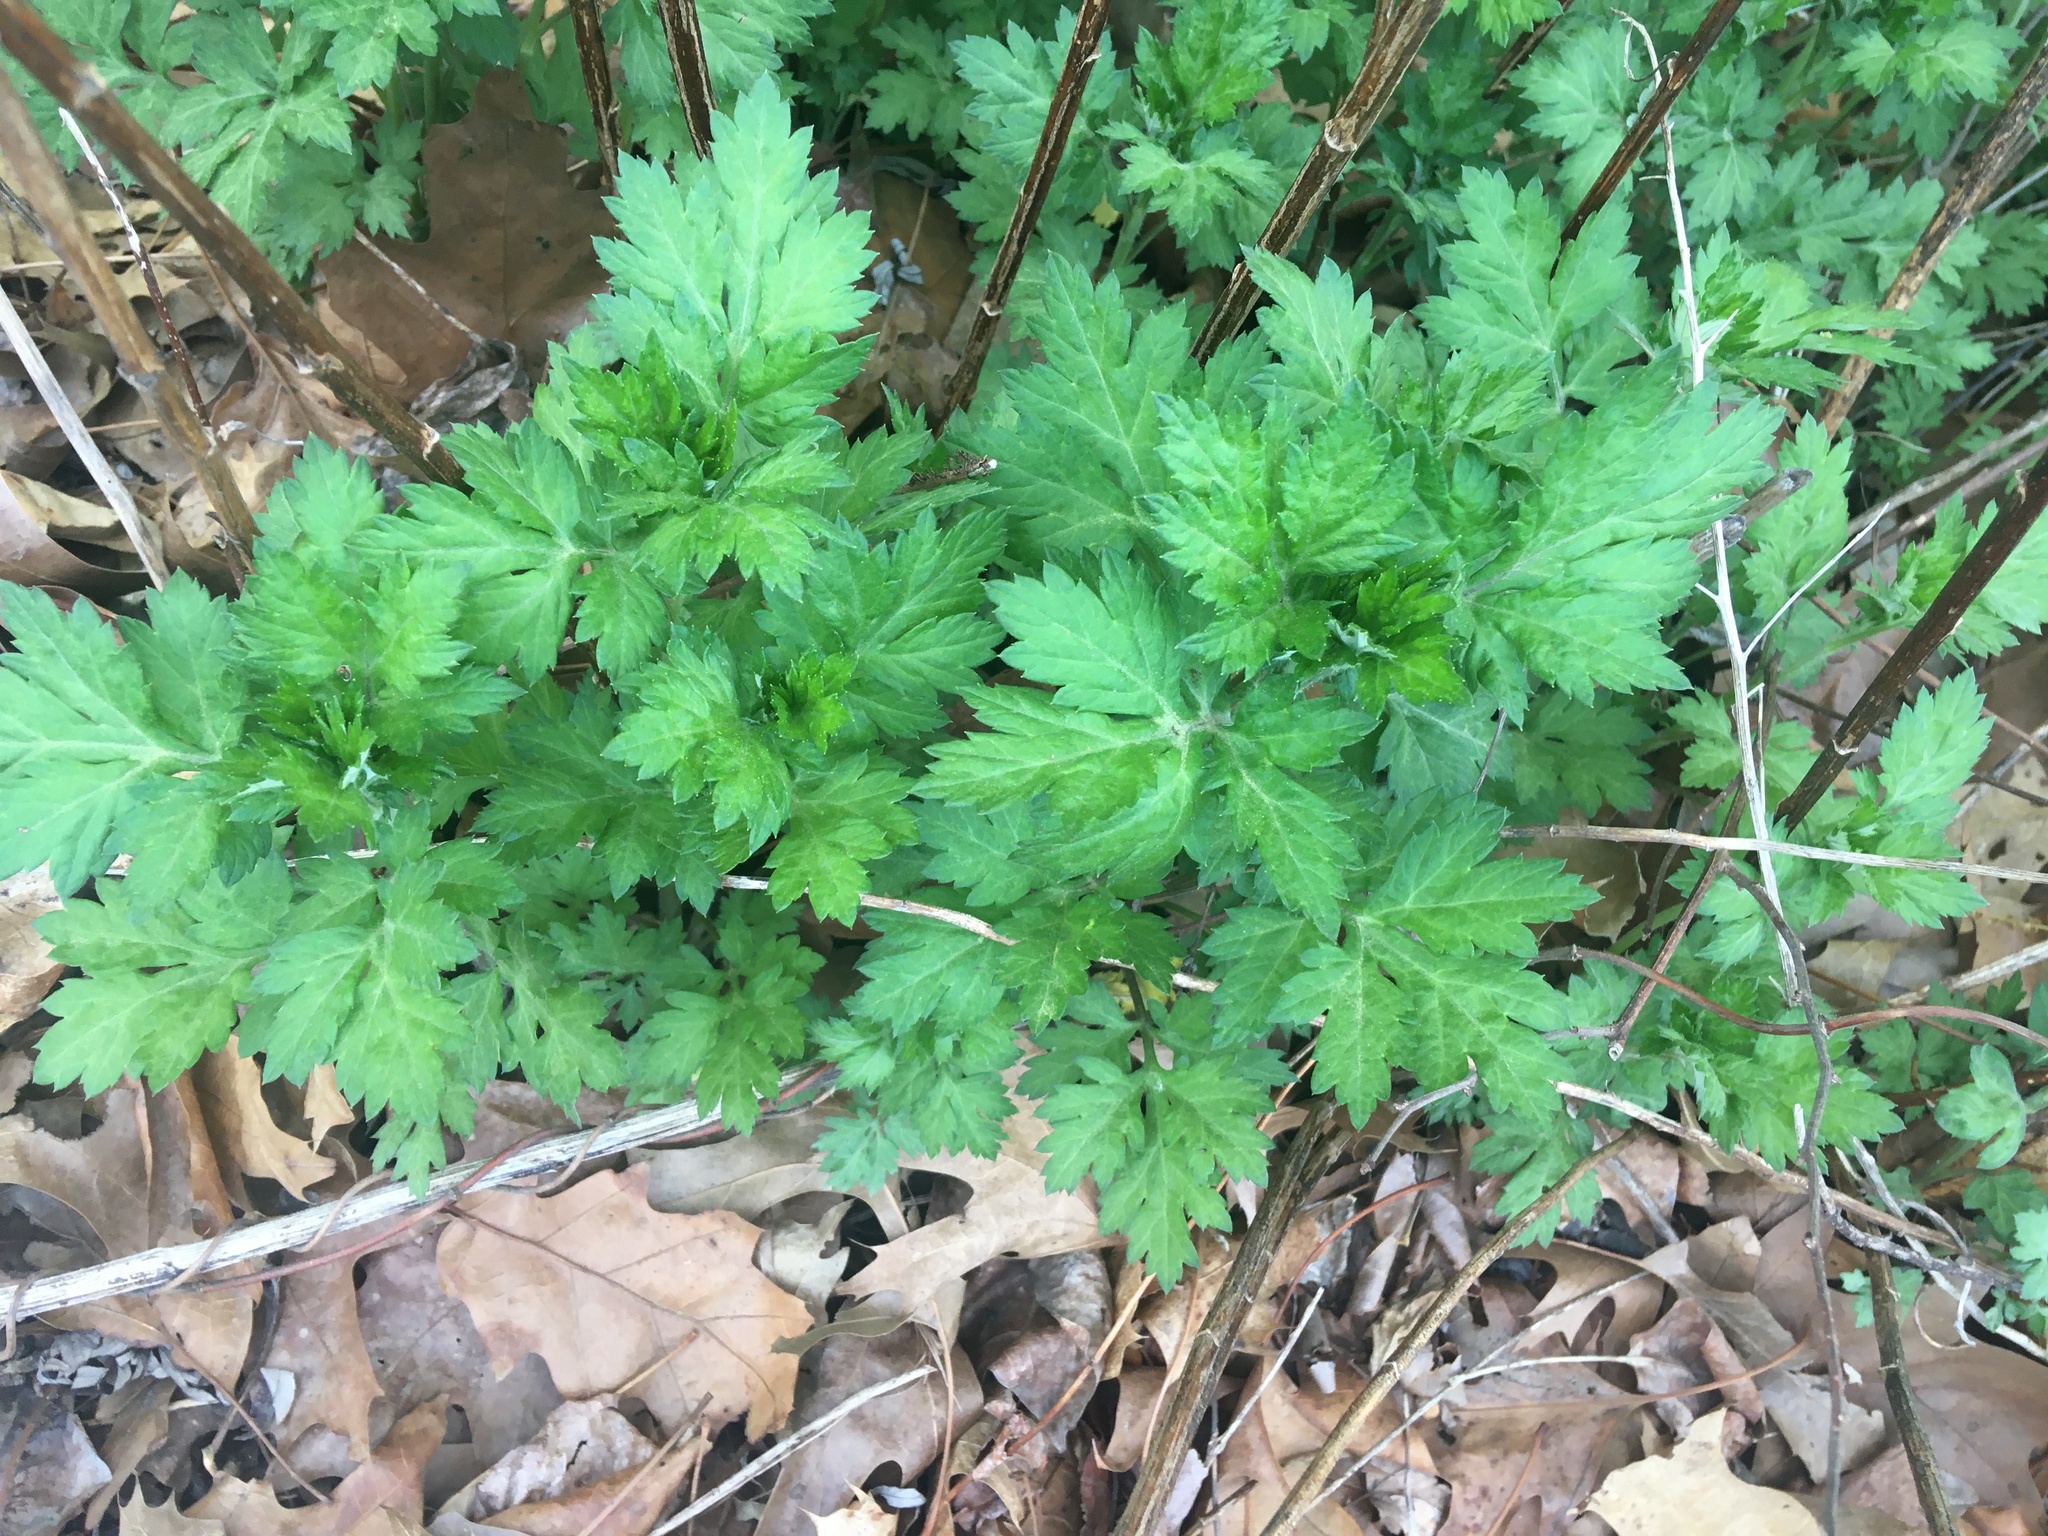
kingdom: Plantae
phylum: Tracheophyta
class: Magnoliopsida
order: Asterales
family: Asteraceae
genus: Artemisia
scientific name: Artemisia vulgaris
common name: Mugwort
